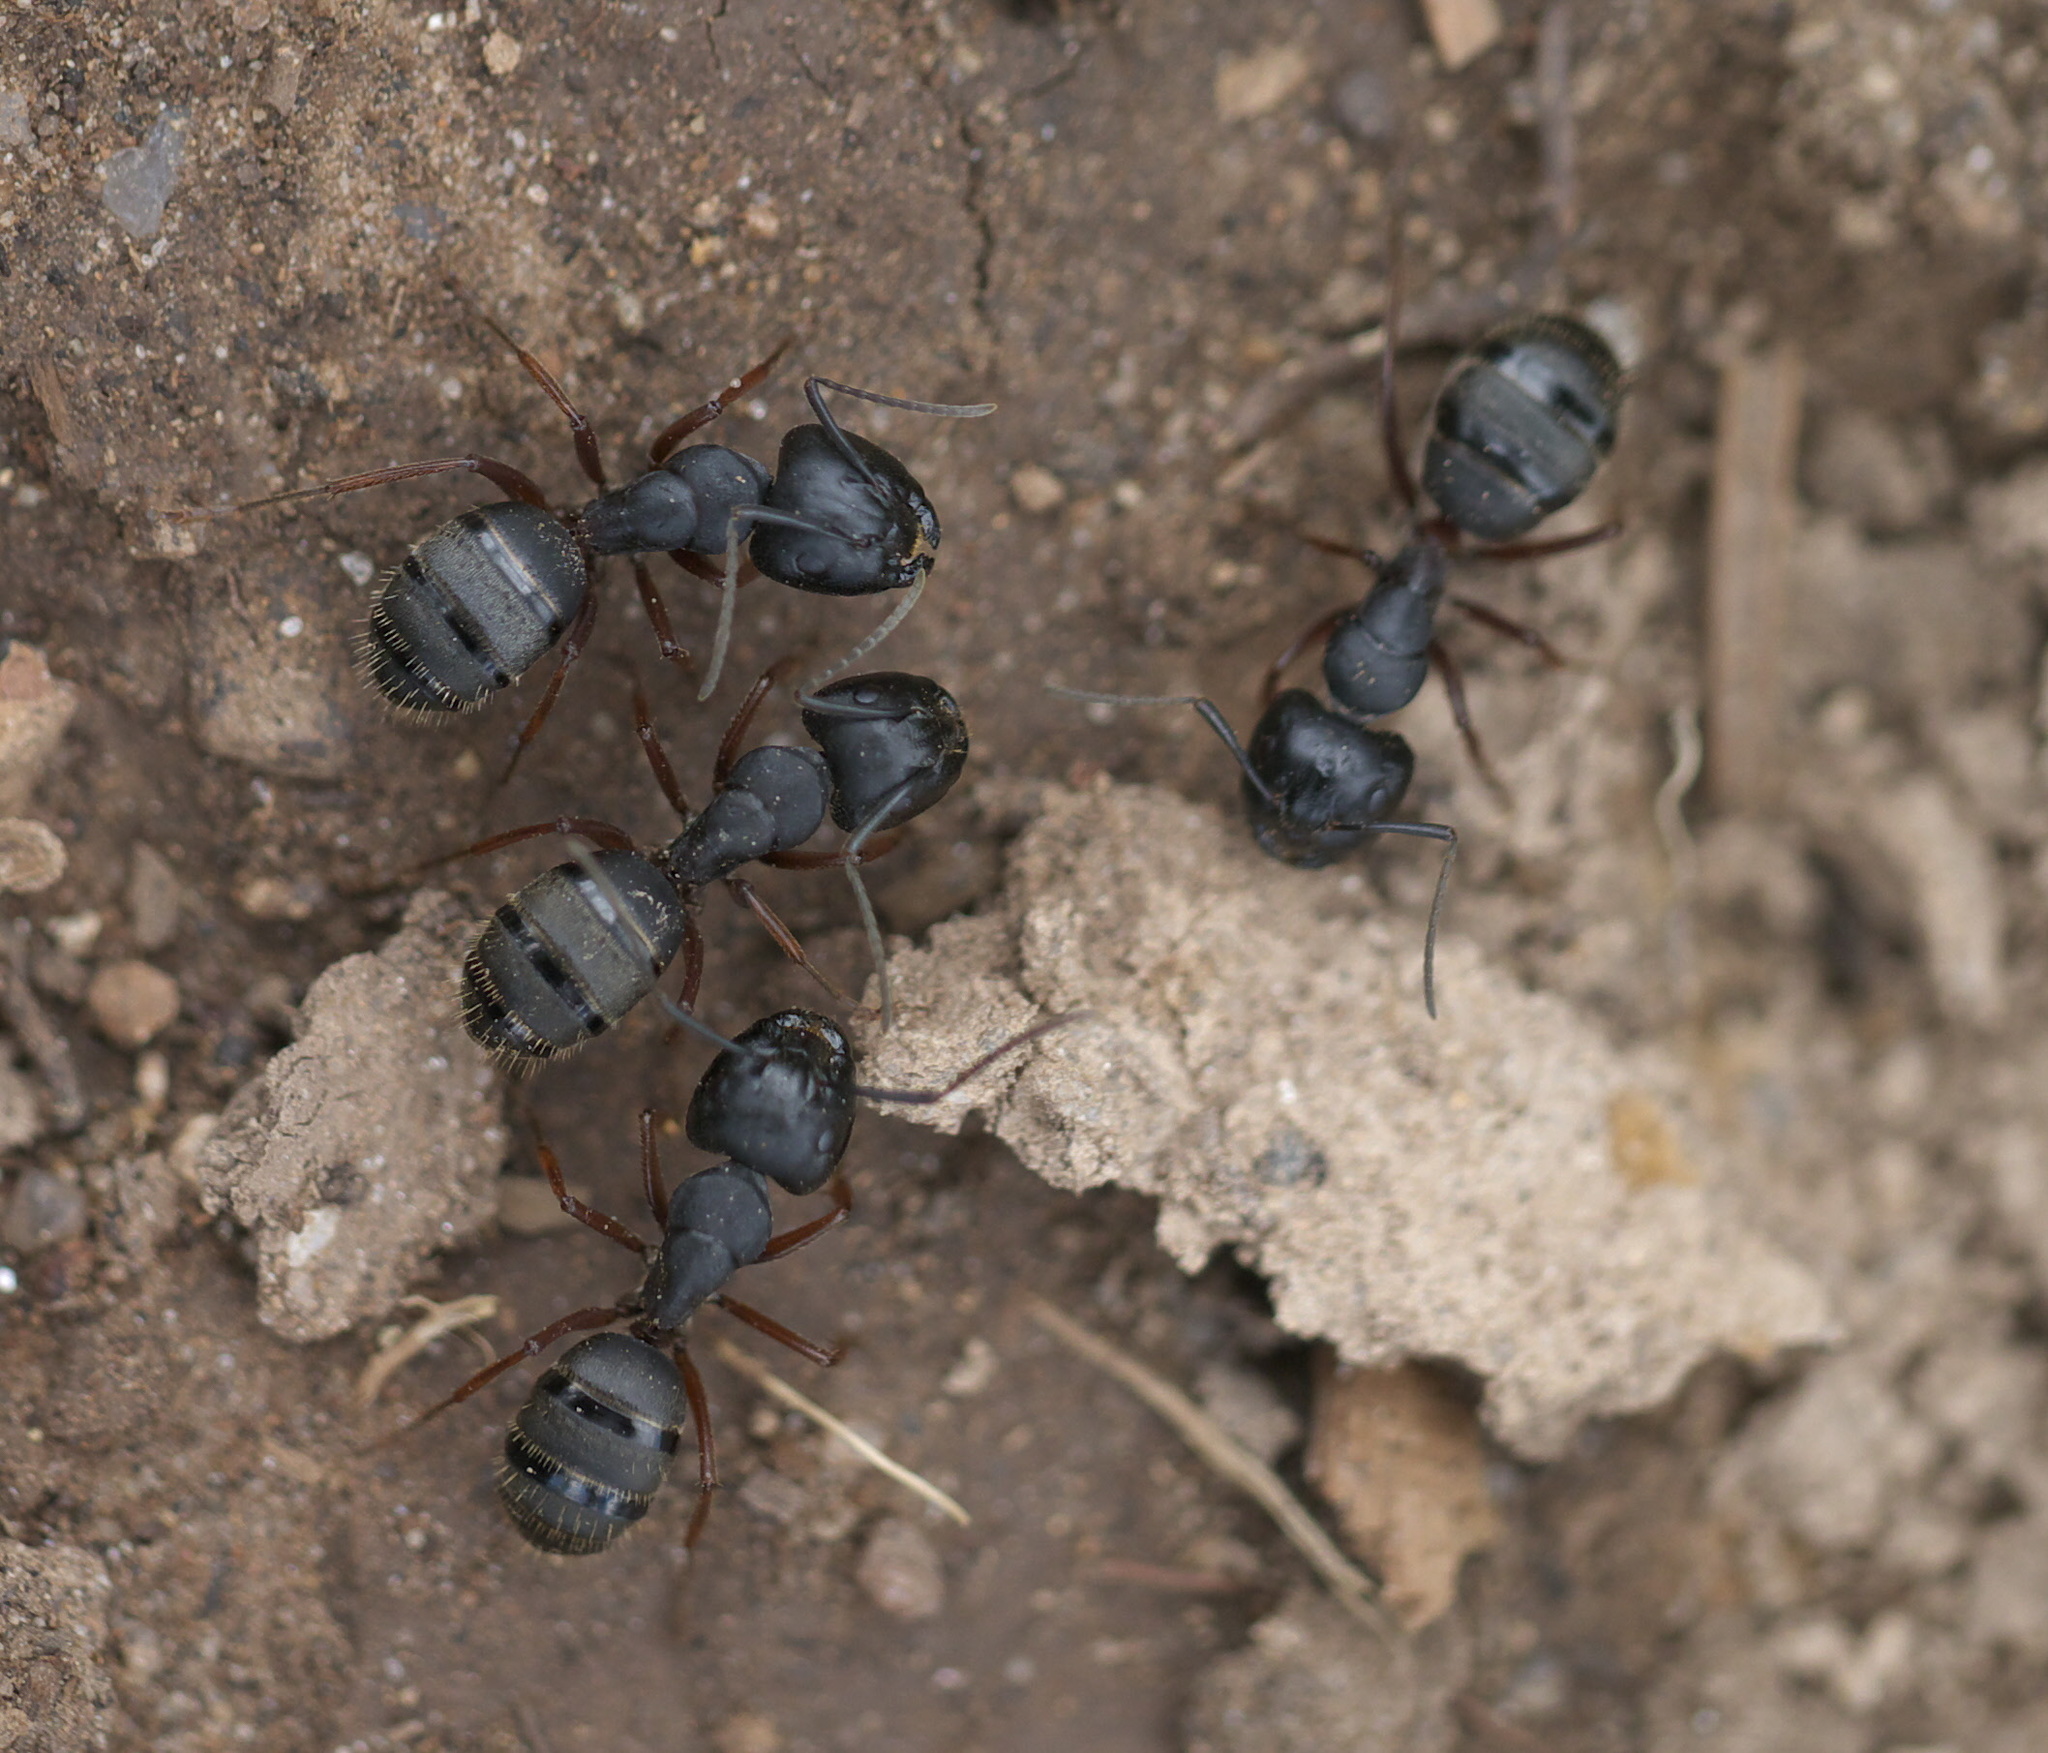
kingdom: Animalia
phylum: Arthropoda
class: Insecta
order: Hymenoptera
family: Formicidae
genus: Camponotus
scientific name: Camponotus modoc
